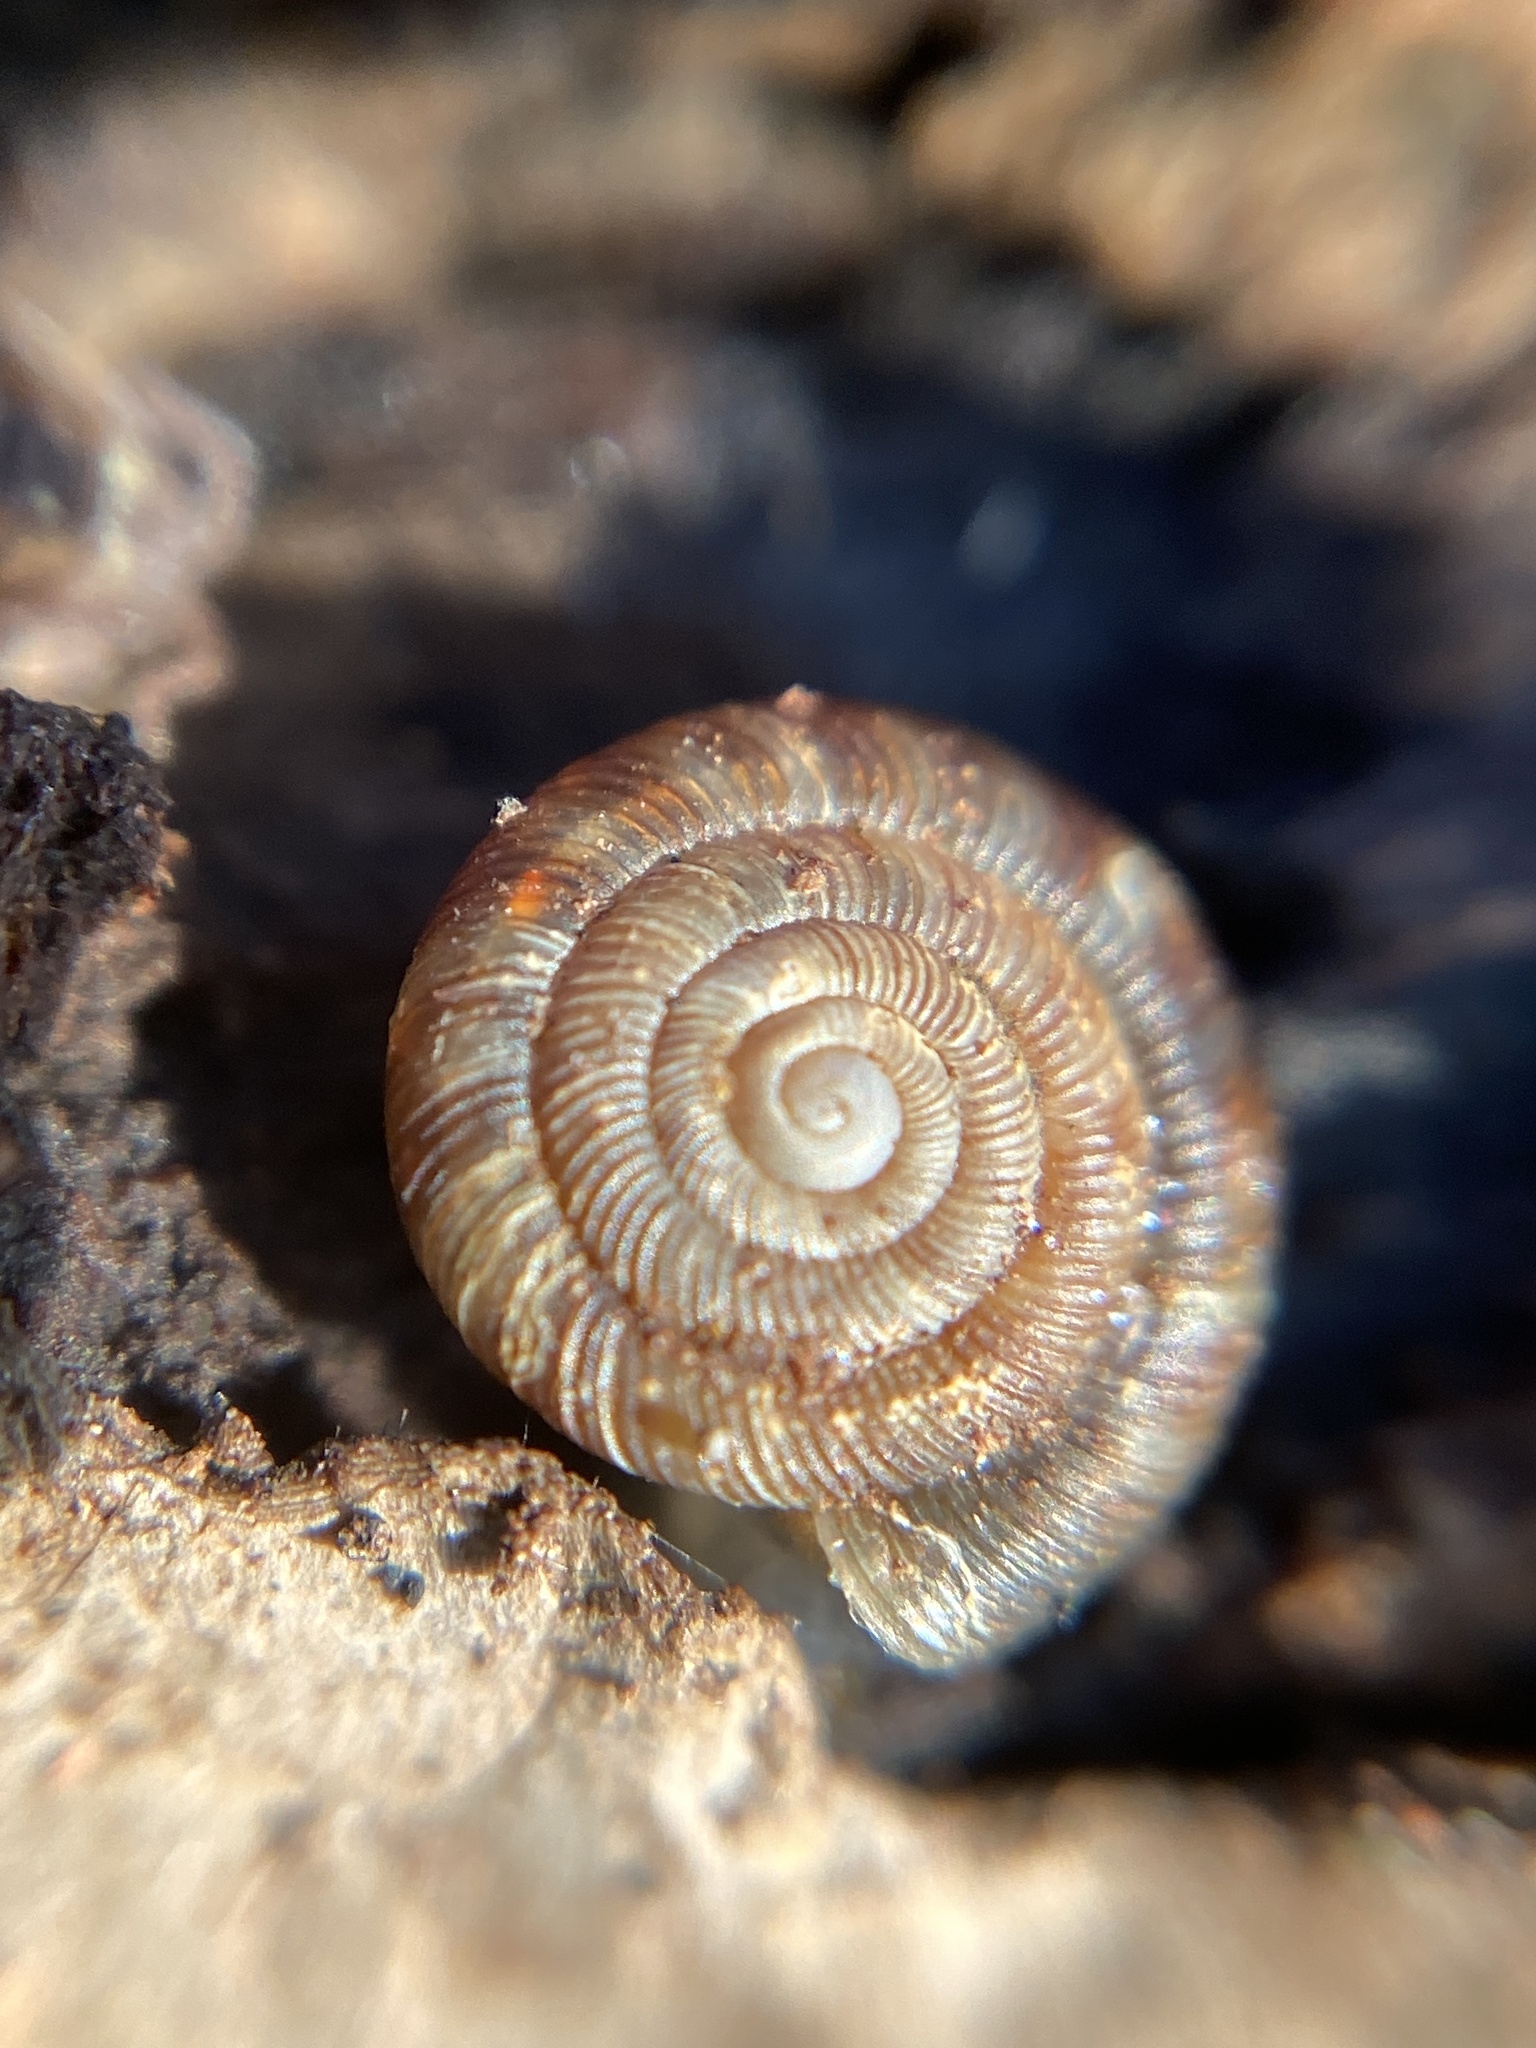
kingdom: Animalia
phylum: Mollusca
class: Gastropoda
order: Stylommatophora
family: Discidae
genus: Discus
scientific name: Discus rotundatus
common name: Rounded snail
